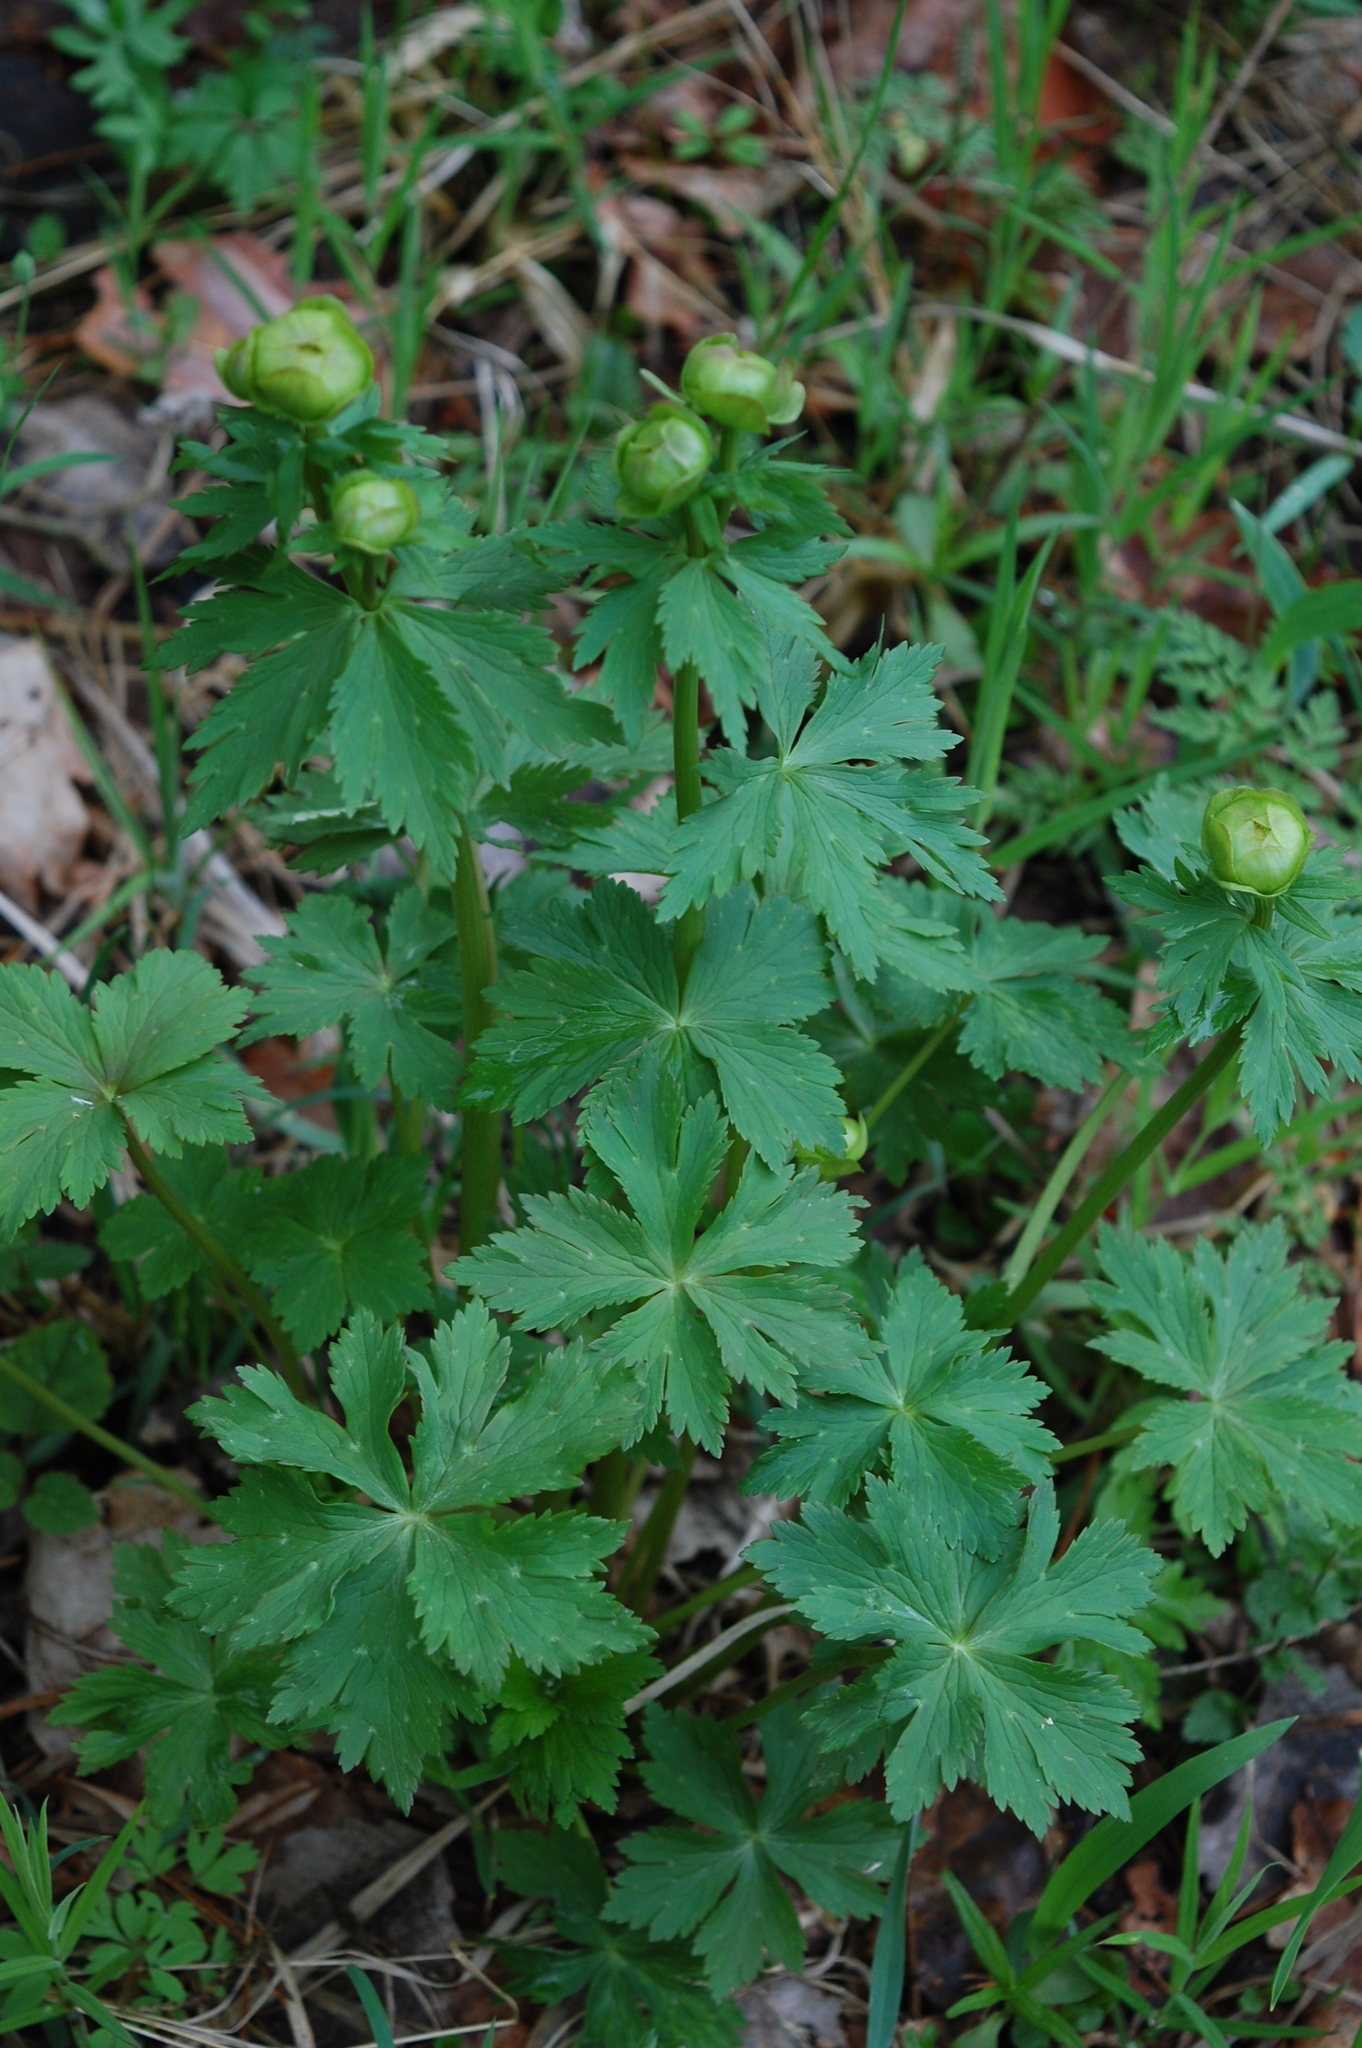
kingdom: Plantae
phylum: Tracheophyta
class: Magnoliopsida
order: Ranunculales
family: Ranunculaceae
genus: Trollius
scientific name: Trollius europaeus
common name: European globeflower
